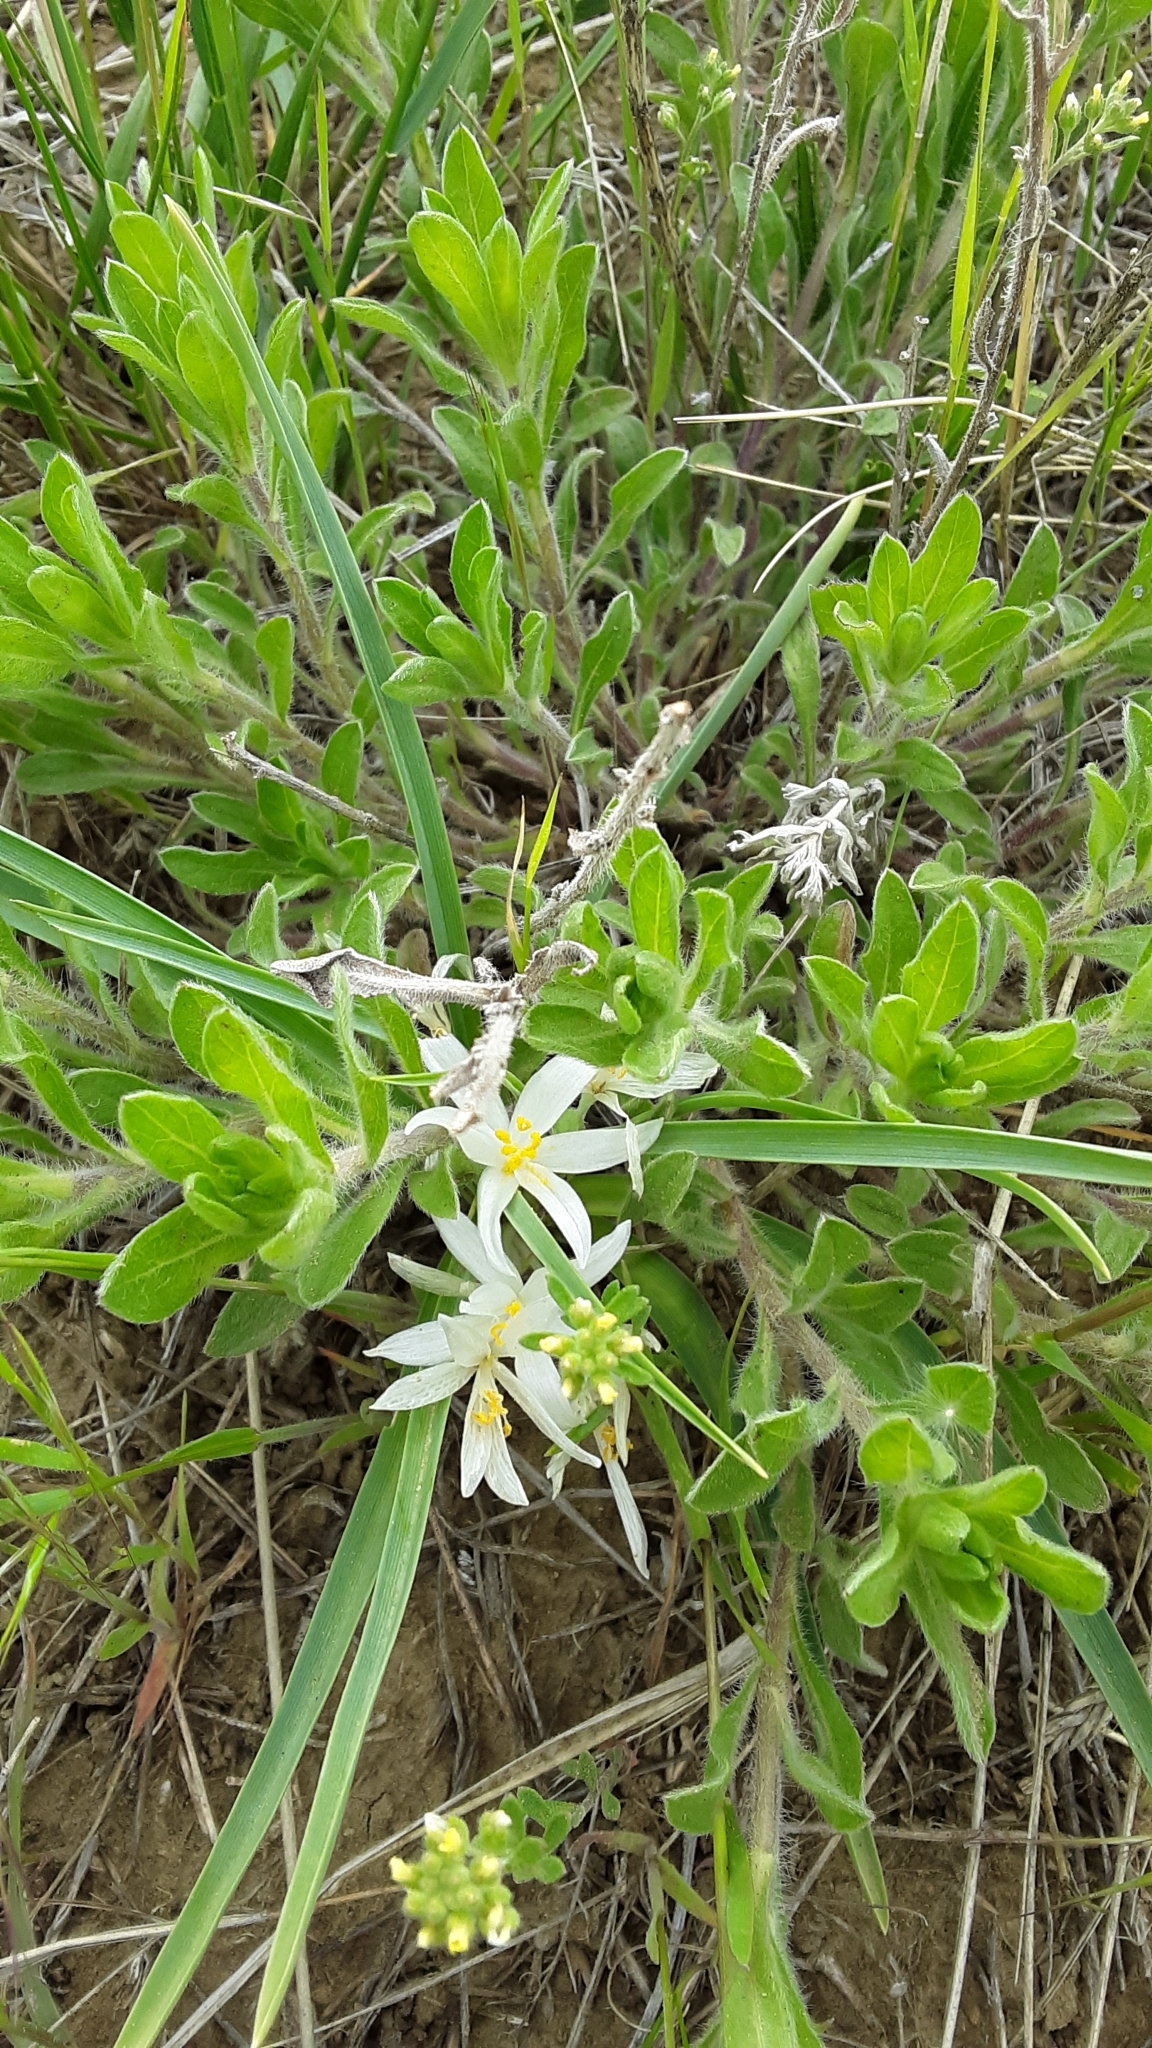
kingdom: Plantae
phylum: Tracheophyta
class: Liliopsida
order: Asparagales
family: Asparagaceae
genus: Leucocrinum
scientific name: Leucocrinum montanum
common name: Mountain-lily
